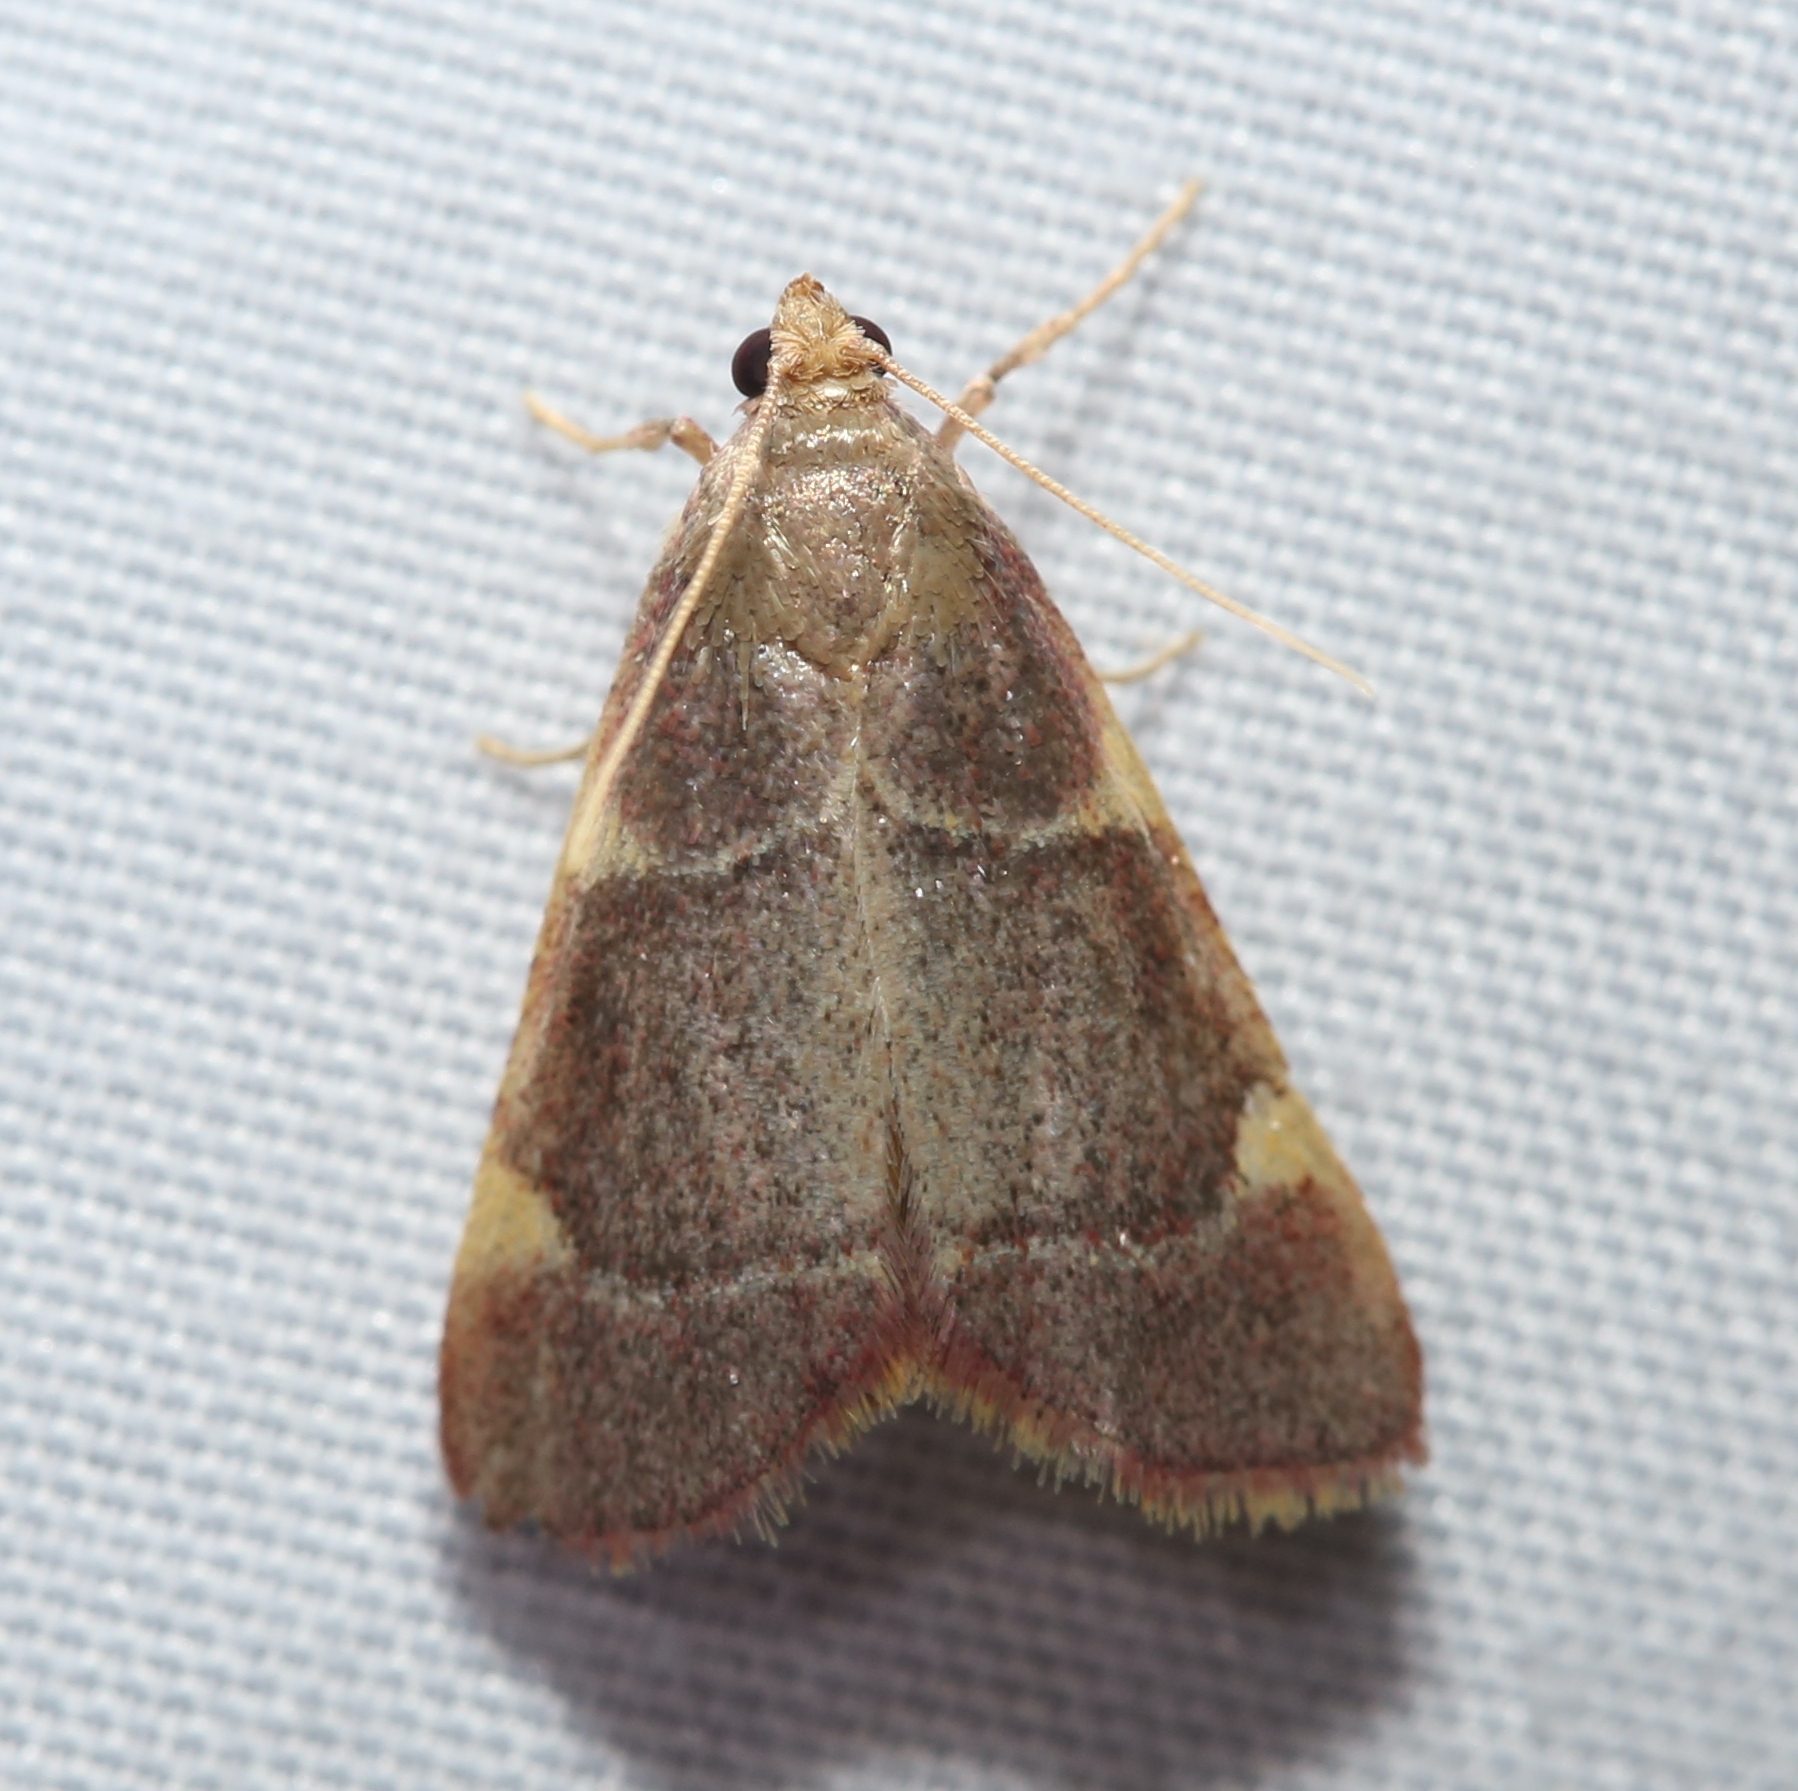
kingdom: Animalia
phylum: Arthropoda
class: Insecta
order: Lepidoptera
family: Pyralidae
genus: Hypsopygia
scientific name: Hypsopygia olinalis
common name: Yellow-fringed dolichomia moth
